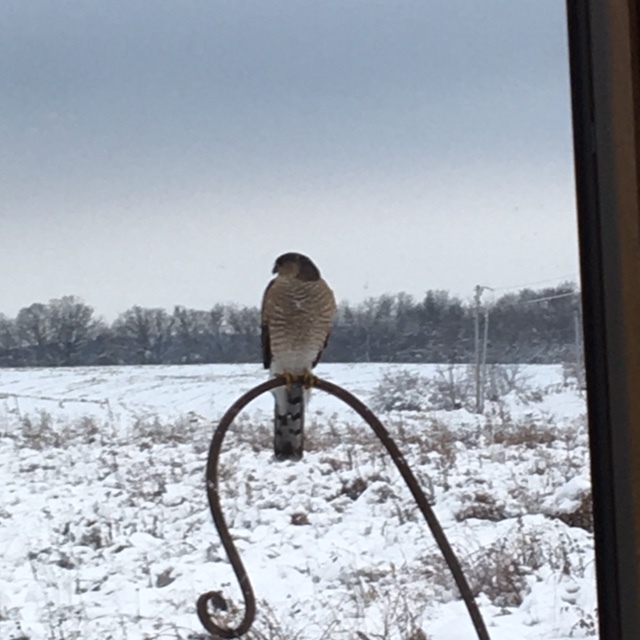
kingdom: Animalia
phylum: Chordata
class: Aves
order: Accipitriformes
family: Accipitridae
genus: Accipiter
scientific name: Accipiter striatus
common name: Sharp-shinned hawk
